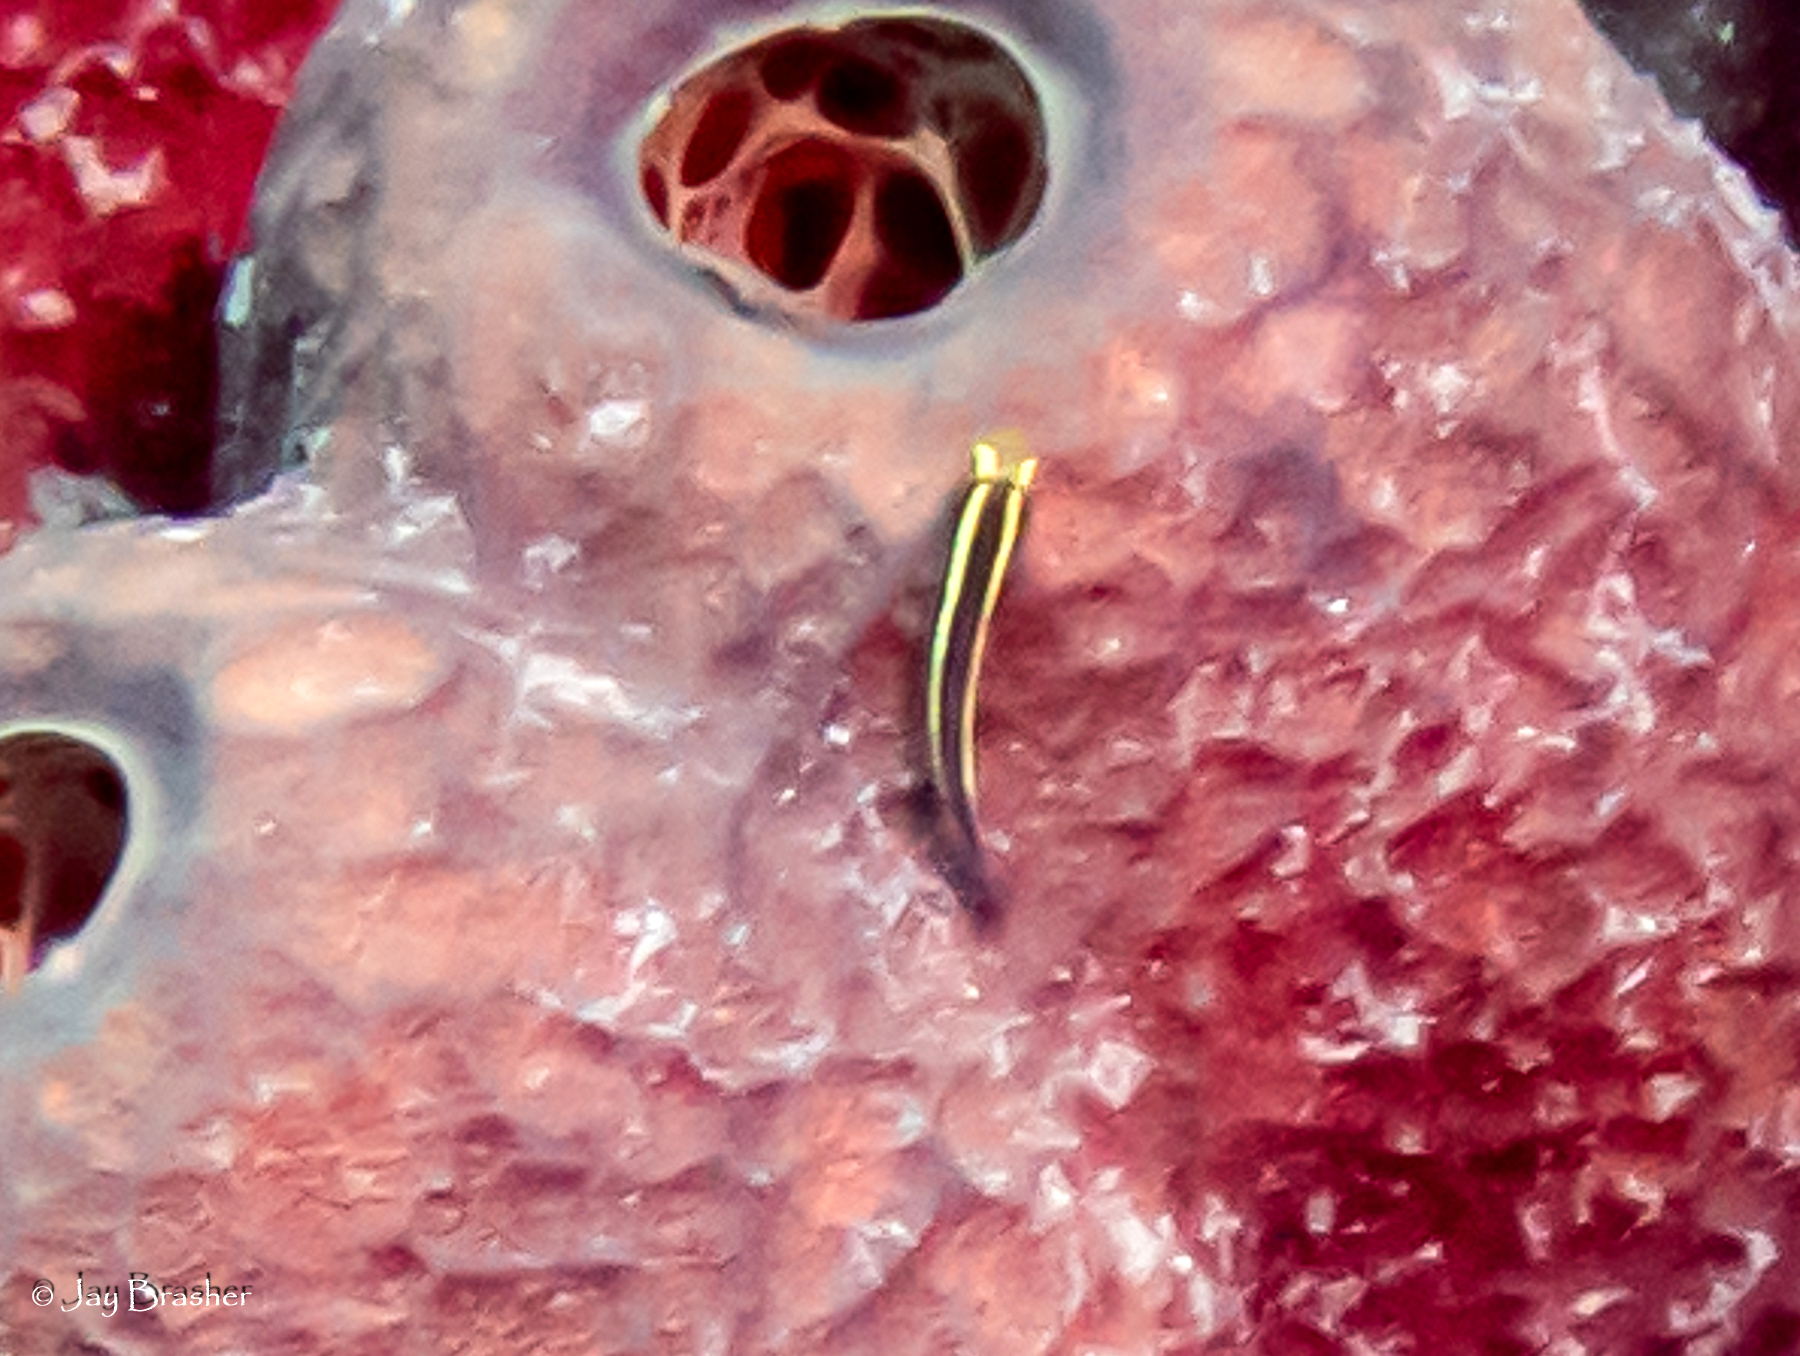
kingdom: Animalia
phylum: Chordata
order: Perciformes
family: Gobiidae
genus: Elacatinus
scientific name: Elacatinus horsti
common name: Yellowline goby
